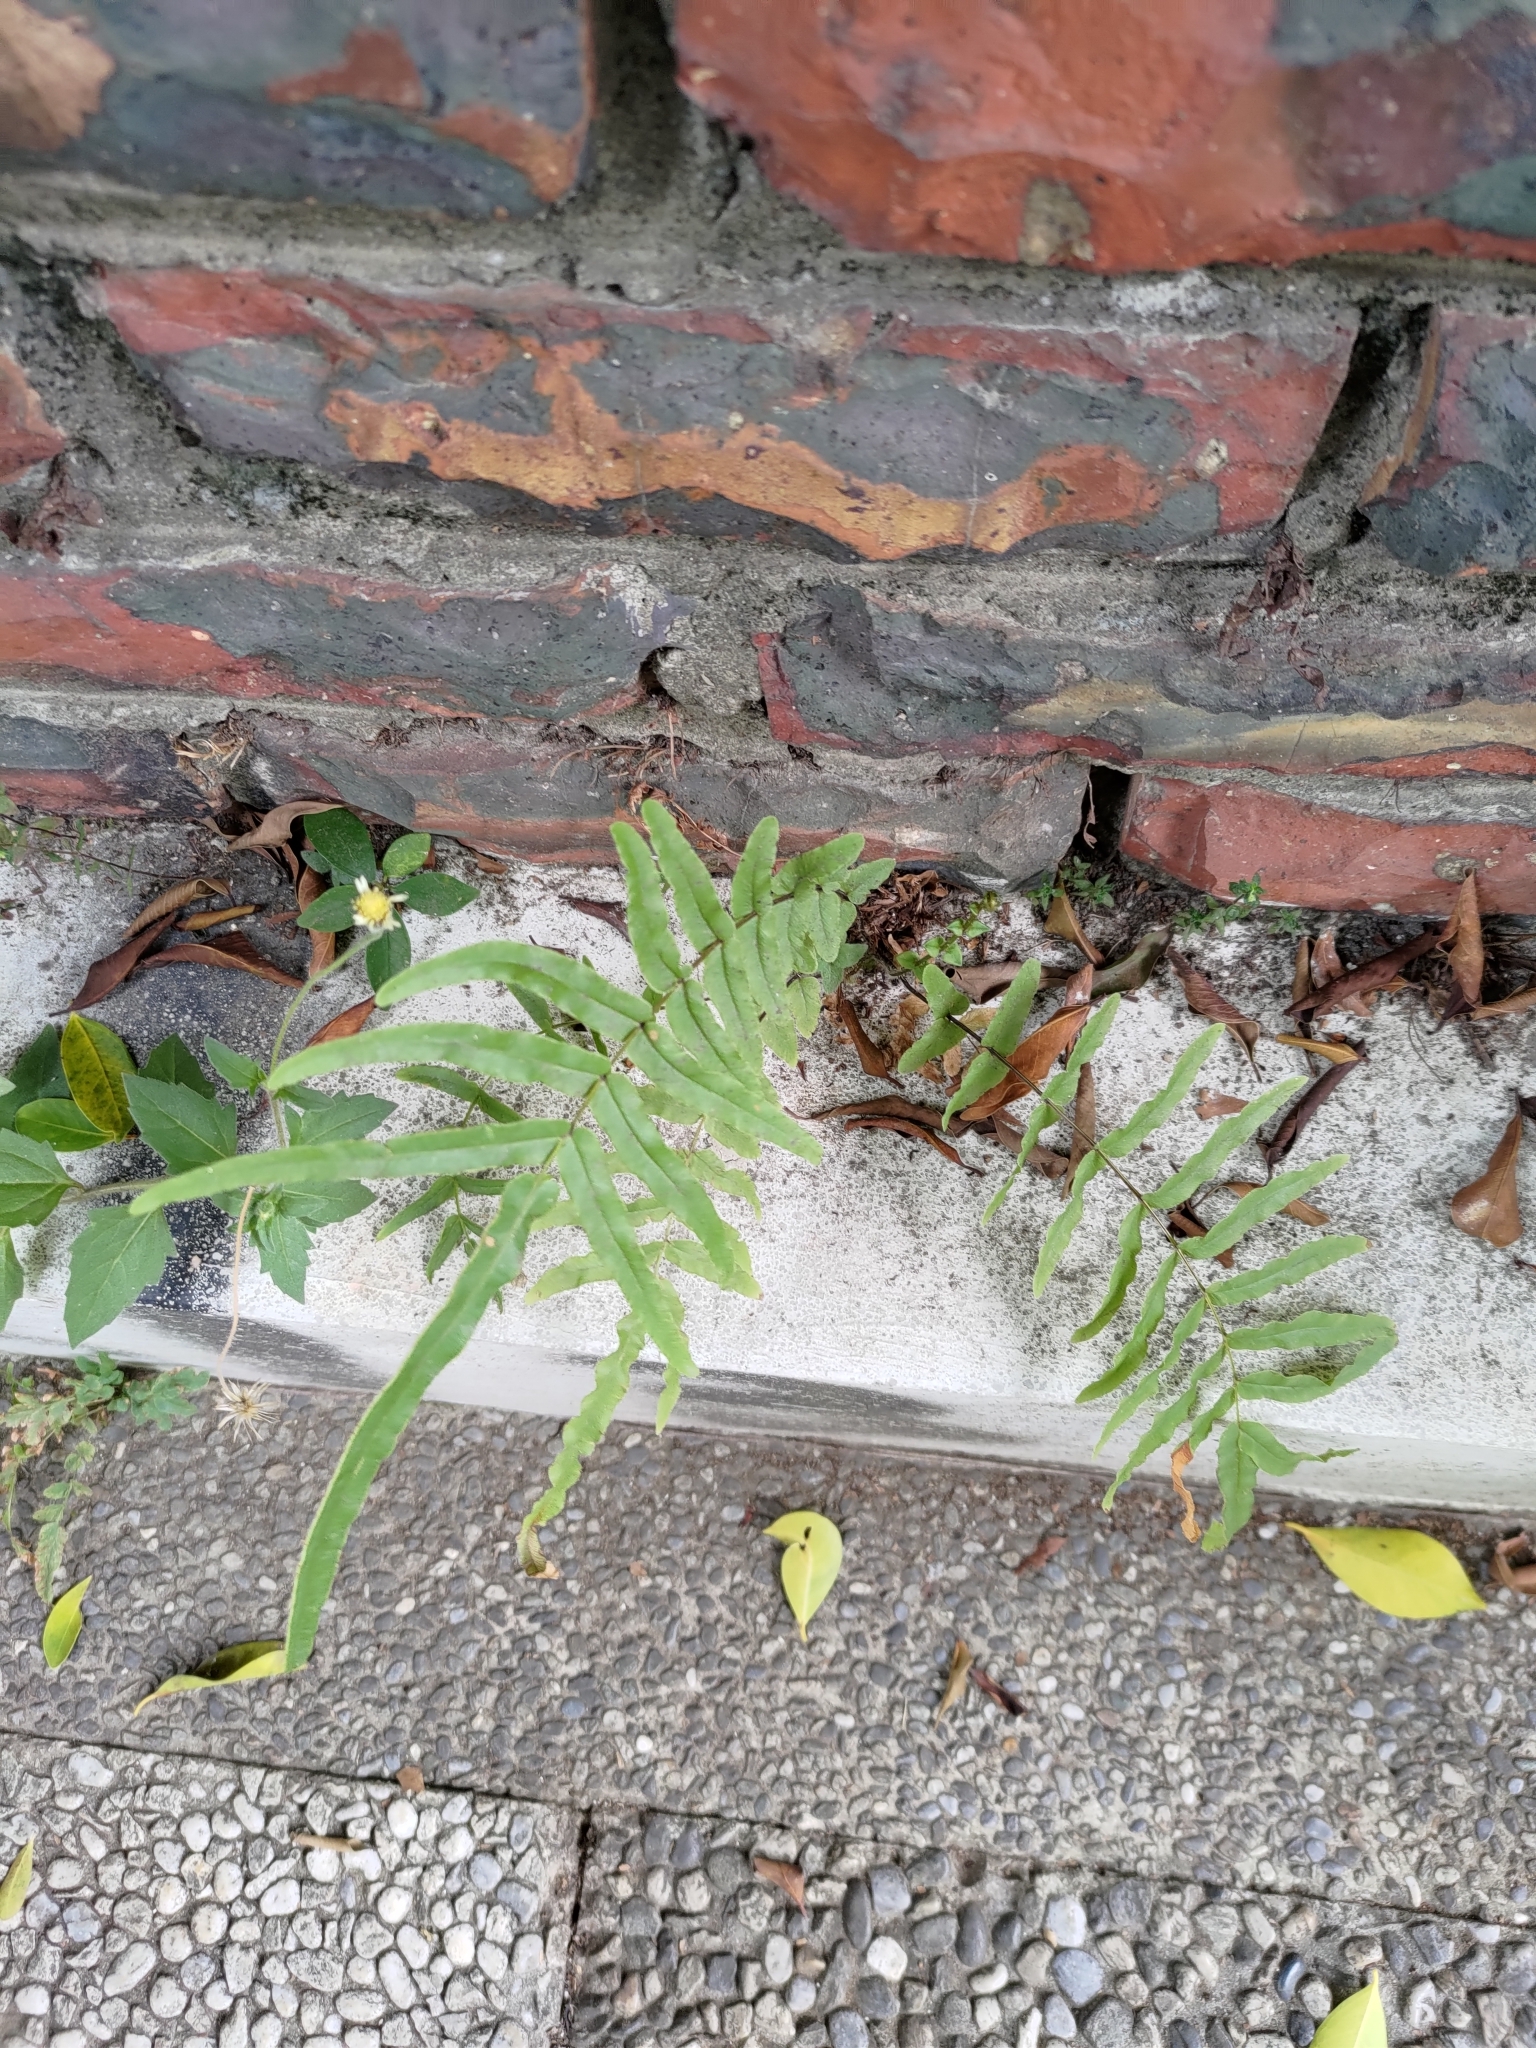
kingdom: Plantae
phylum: Tracheophyta
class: Polypodiopsida
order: Polypodiales
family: Pteridaceae
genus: Pteris
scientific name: Pteris vittata
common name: Ladder brake
